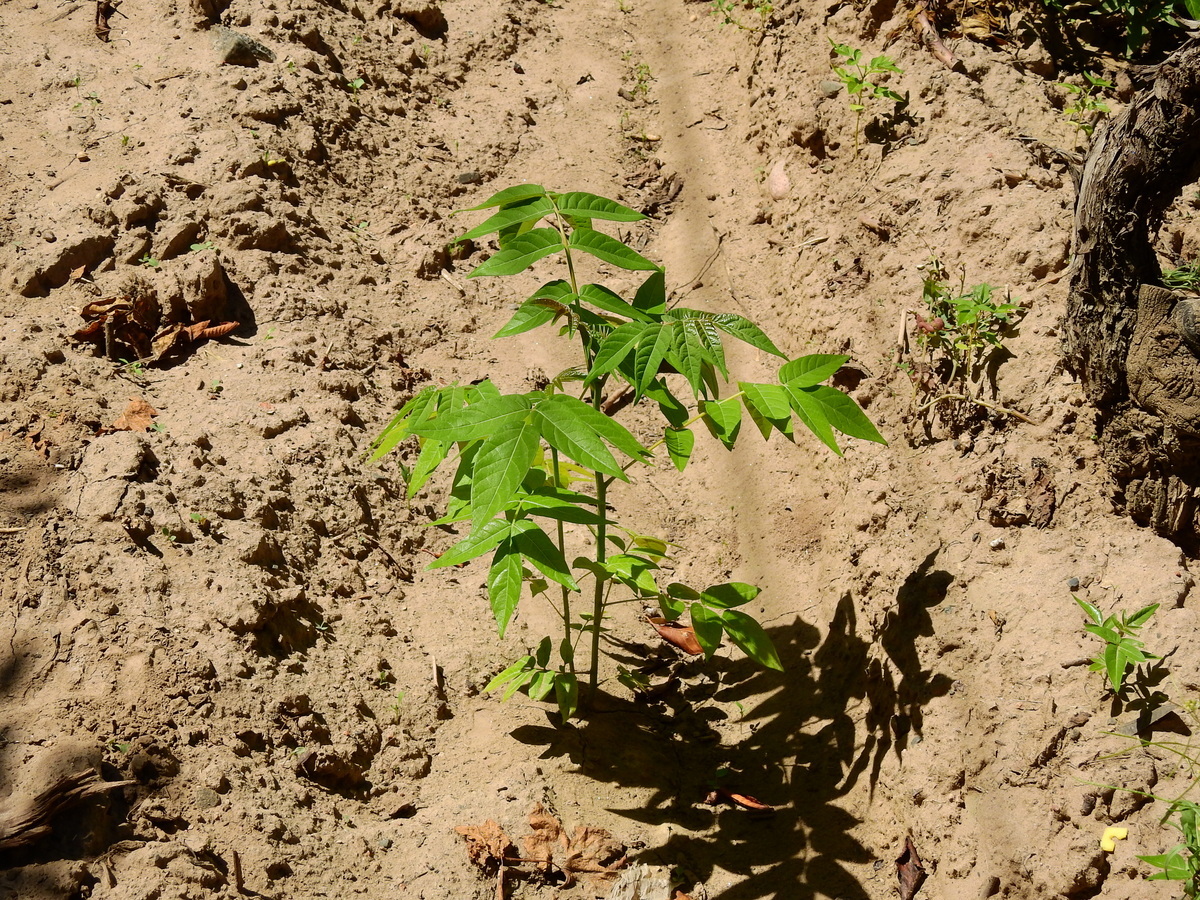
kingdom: Plantae
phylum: Tracheophyta
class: Magnoliopsida
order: Sapindales
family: Simaroubaceae
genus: Ailanthus
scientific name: Ailanthus altissima
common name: Tree-of-heaven
